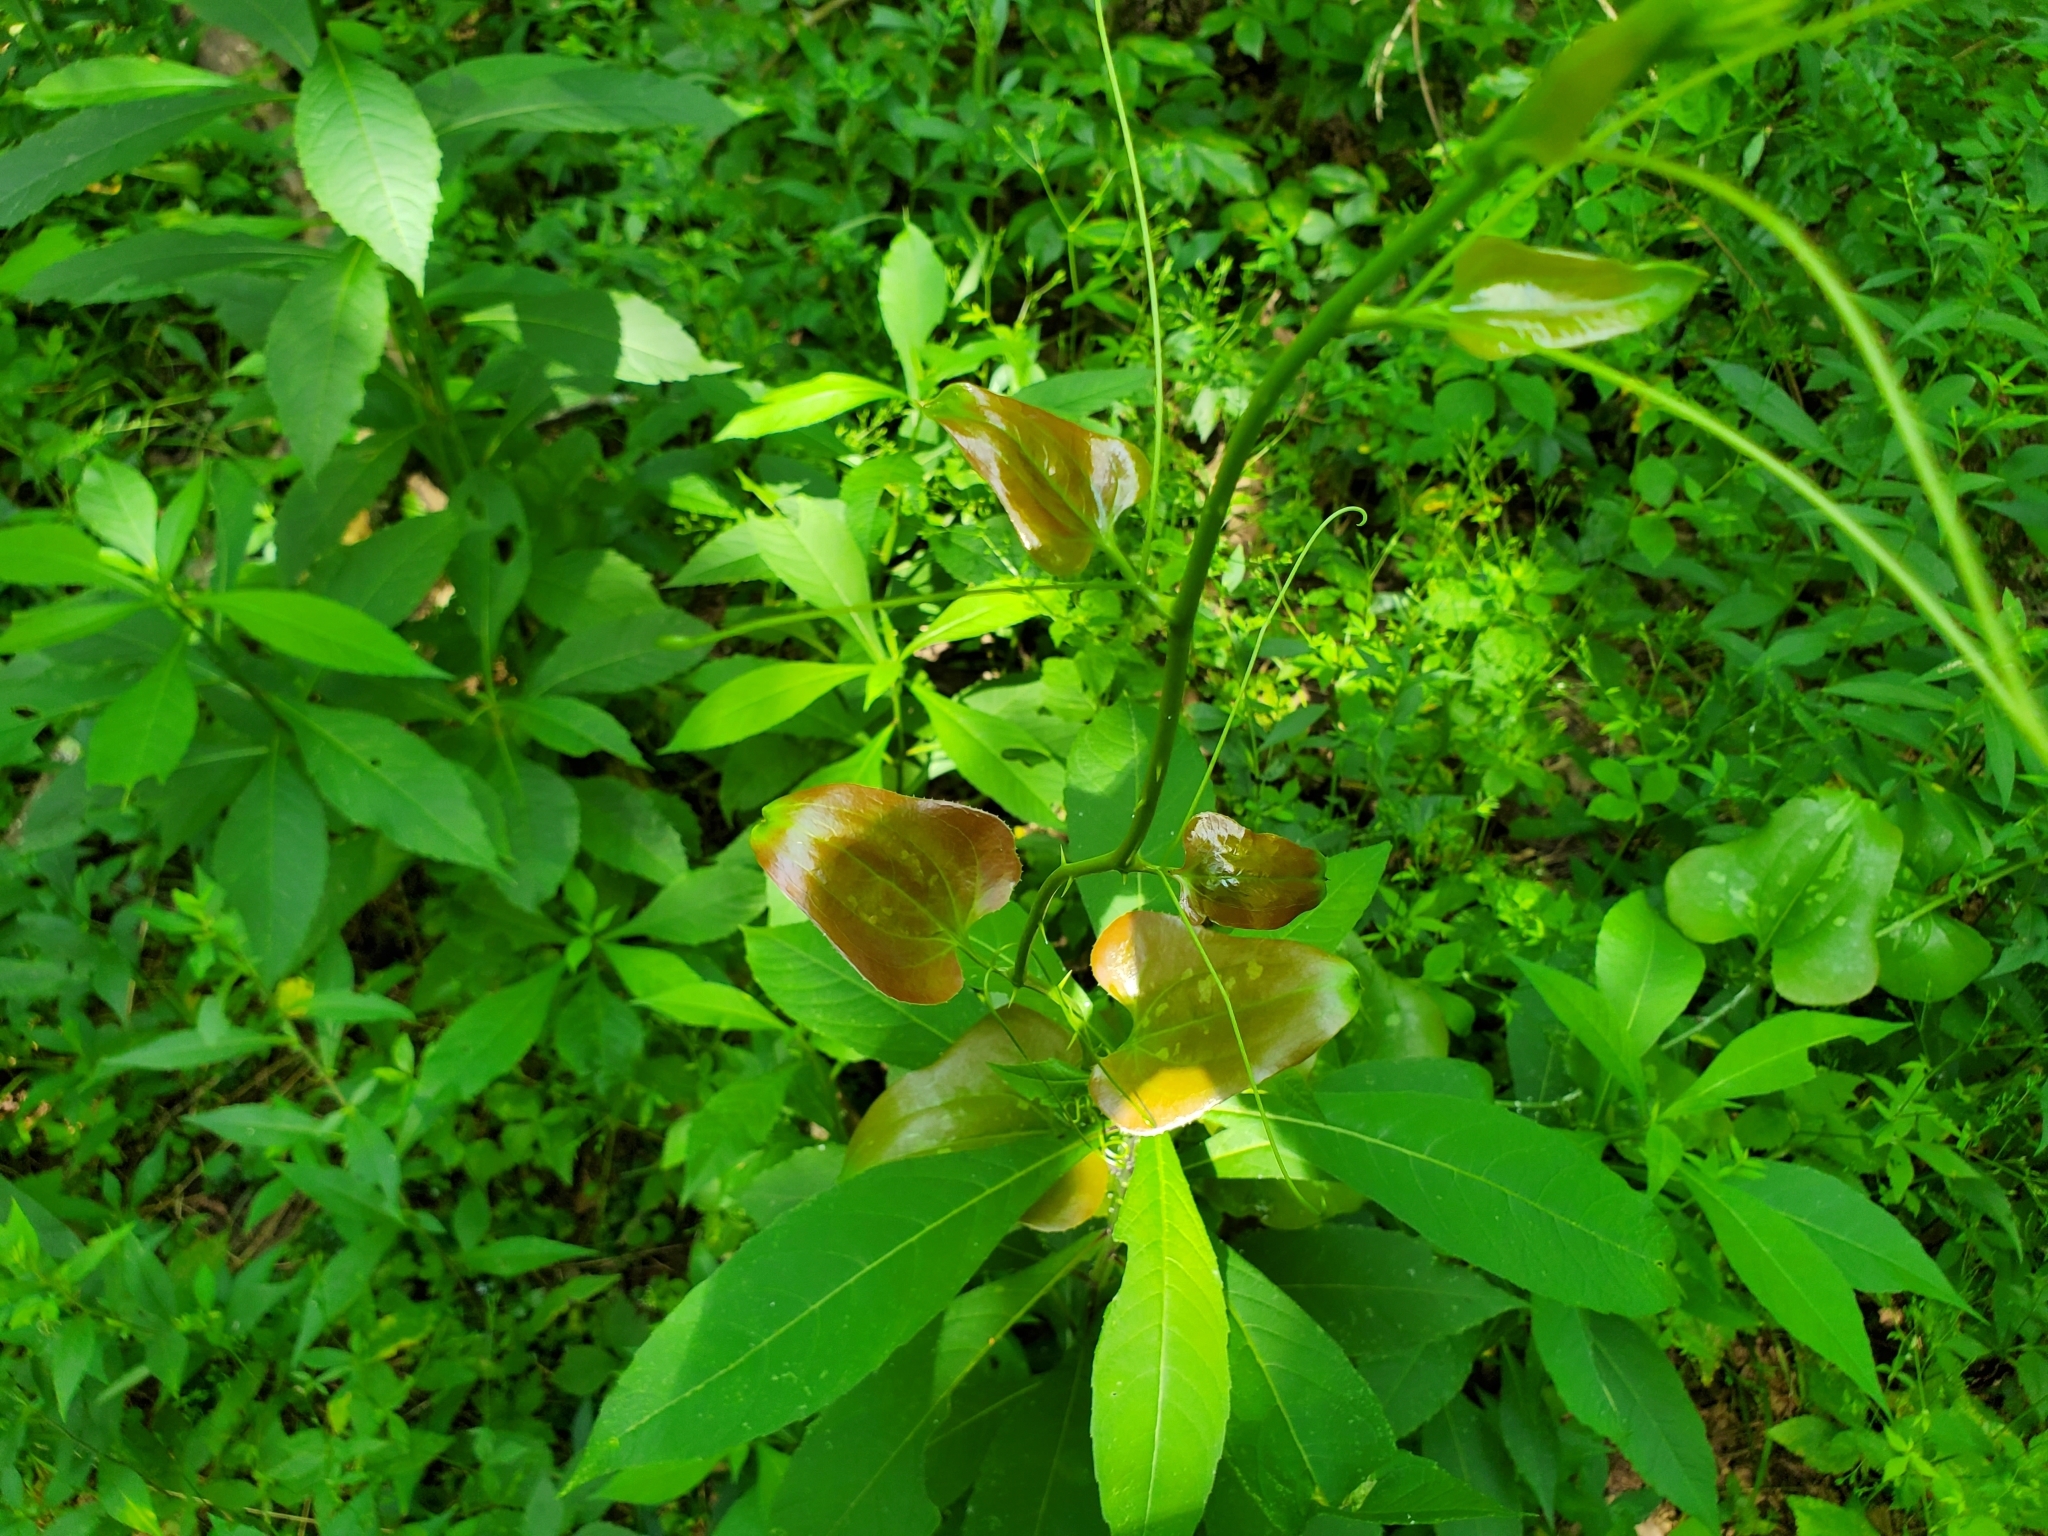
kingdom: Plantae
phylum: Tracheophyta
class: Liliopsida
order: Liliales
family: Smilacaceae
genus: Smilax
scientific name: Smilax bona-nox
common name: Catbrier
